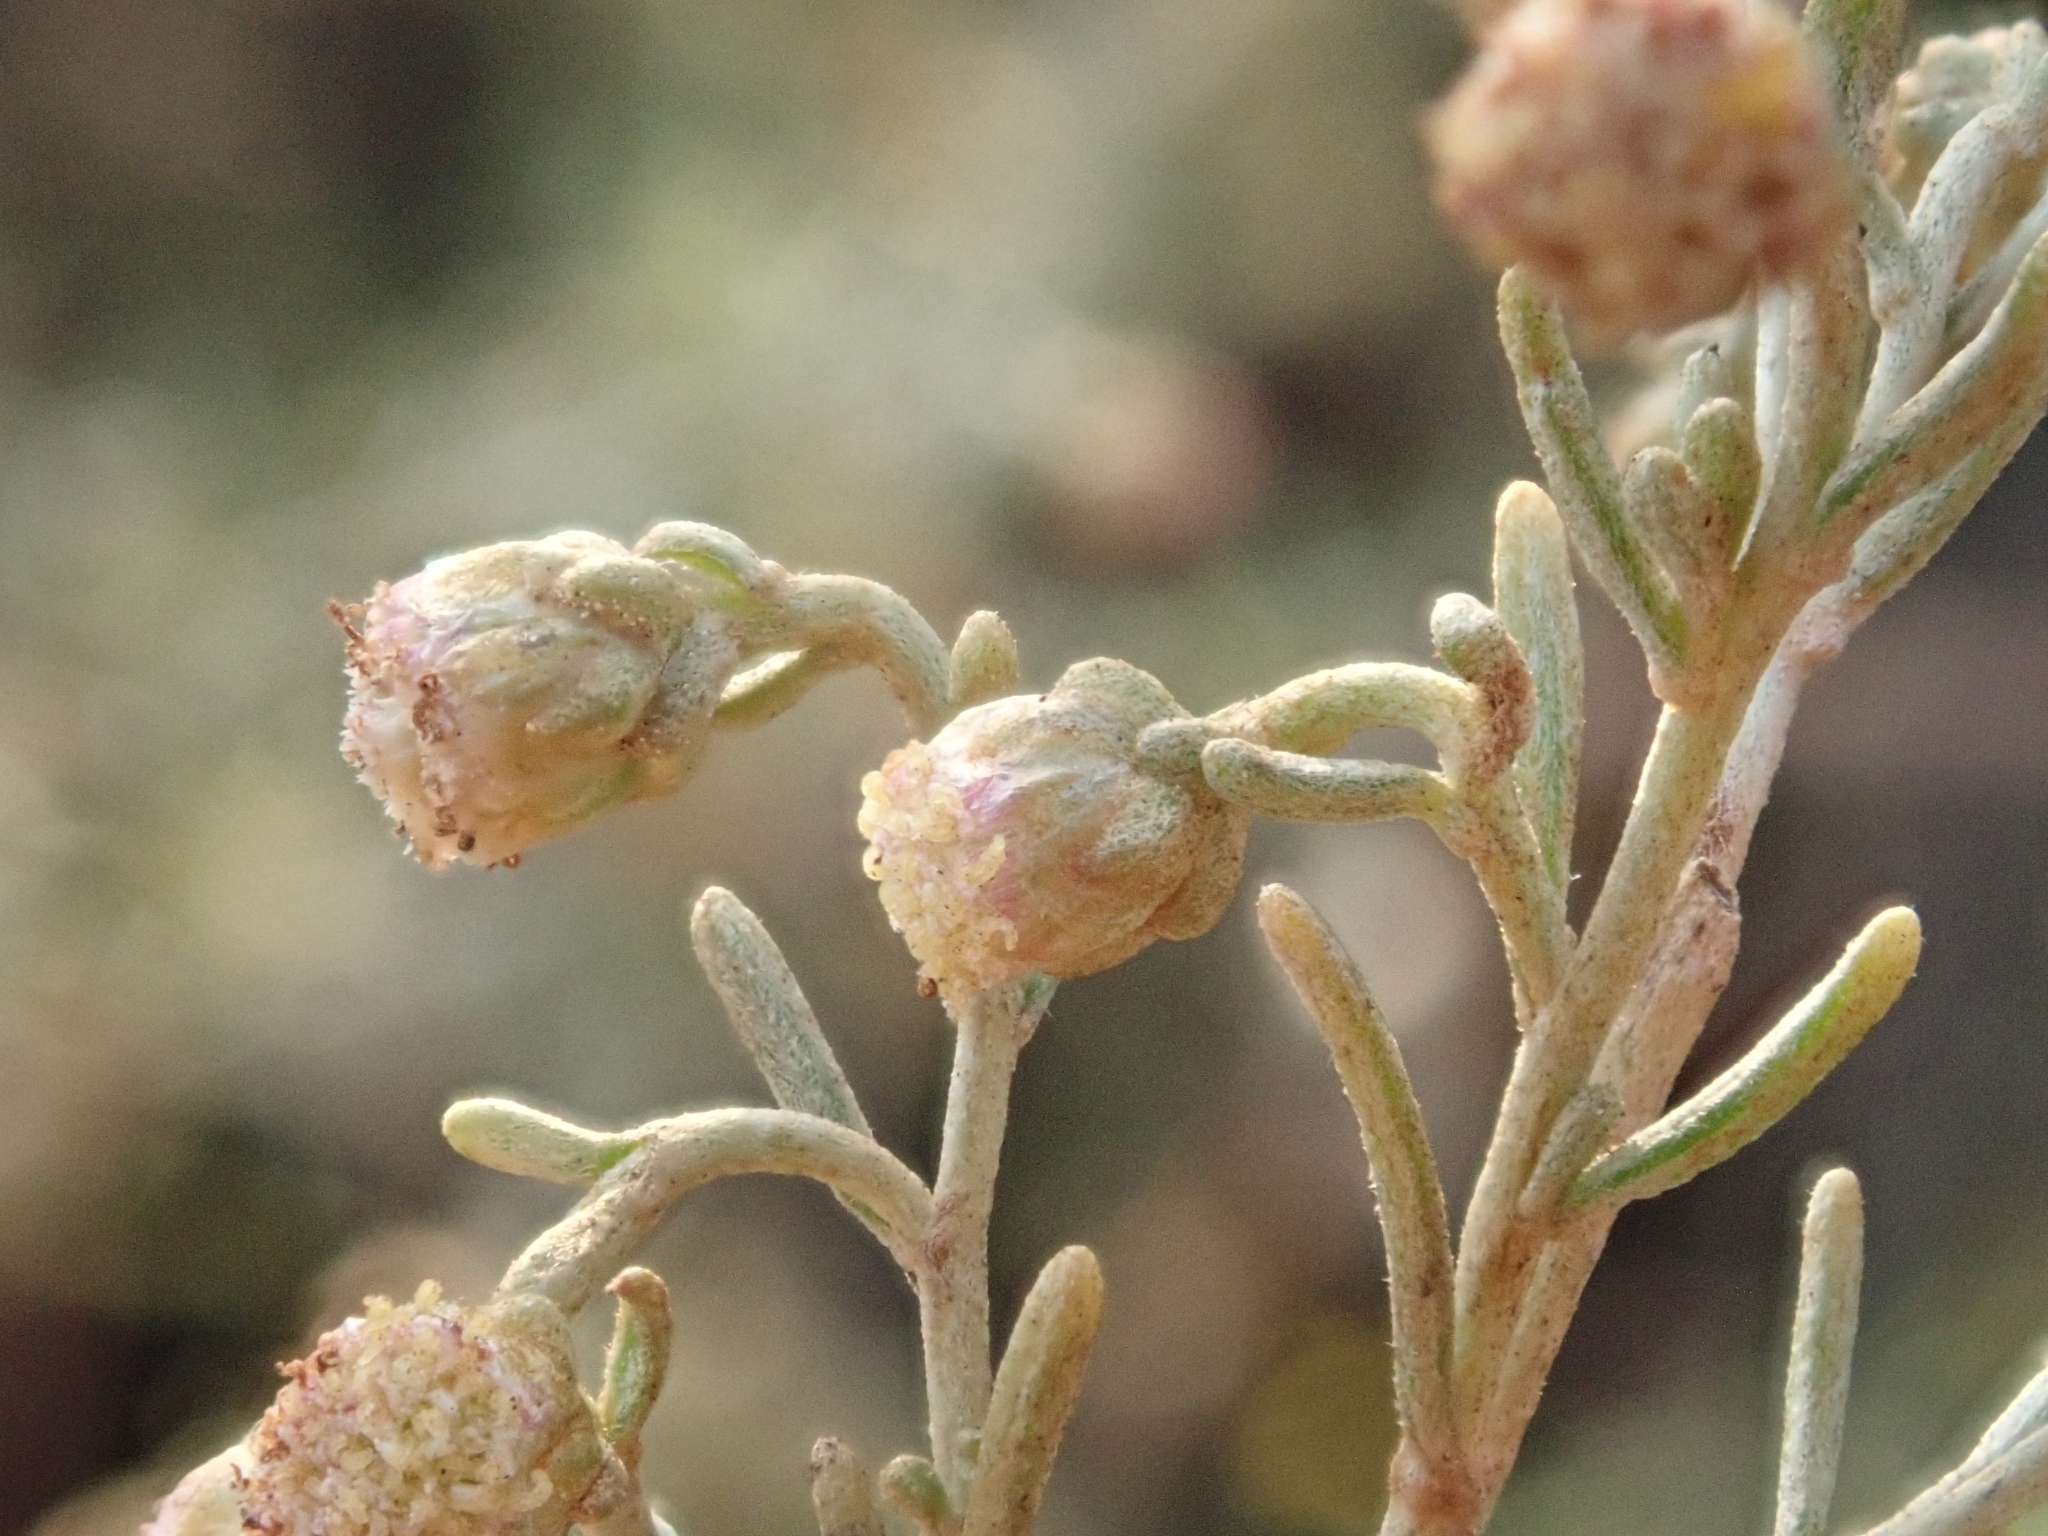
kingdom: Plantae
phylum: Tracheophyta
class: Magnoliopsida
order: Asterales
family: Asteraceae
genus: Artemisia
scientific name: Artemisia californica
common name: California sagebrush
